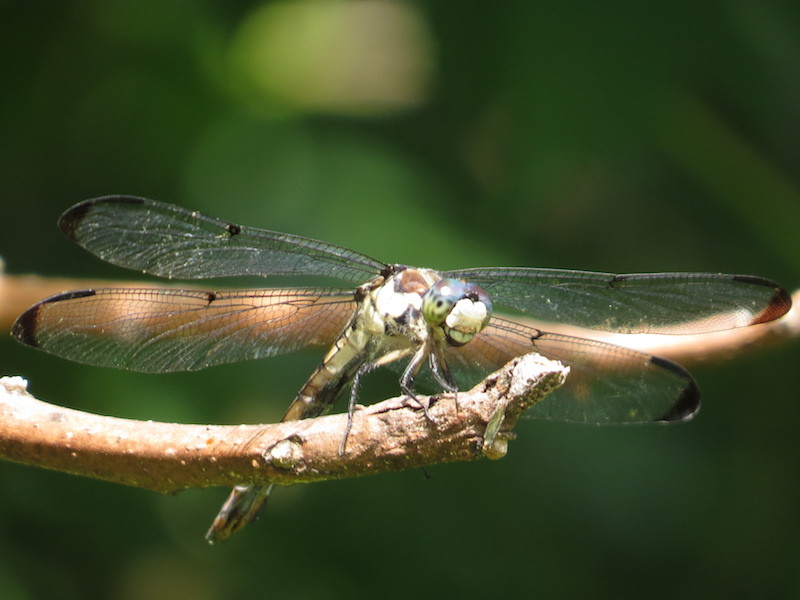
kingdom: Animalia
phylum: Arthropoda
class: Insecta
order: Odonata
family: Libellulidae
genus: Libellula
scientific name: Libellula vibrans
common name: Great blue skimmer
